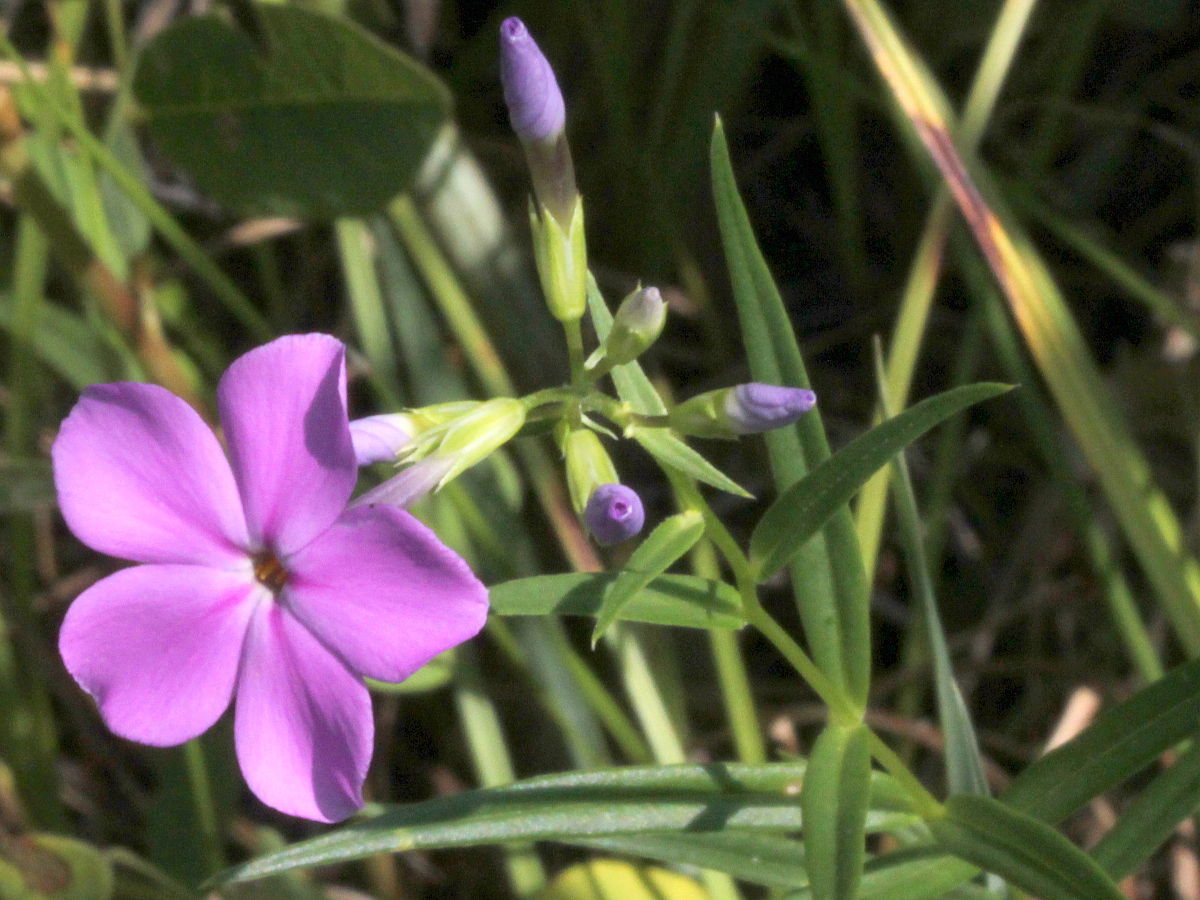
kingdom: Plantae
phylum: Tracheophyta
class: Magnoliopsida
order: Ericales
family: Polemoniaceae
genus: Phlox
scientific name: Phlox glaberrima
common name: Smooth phlox
